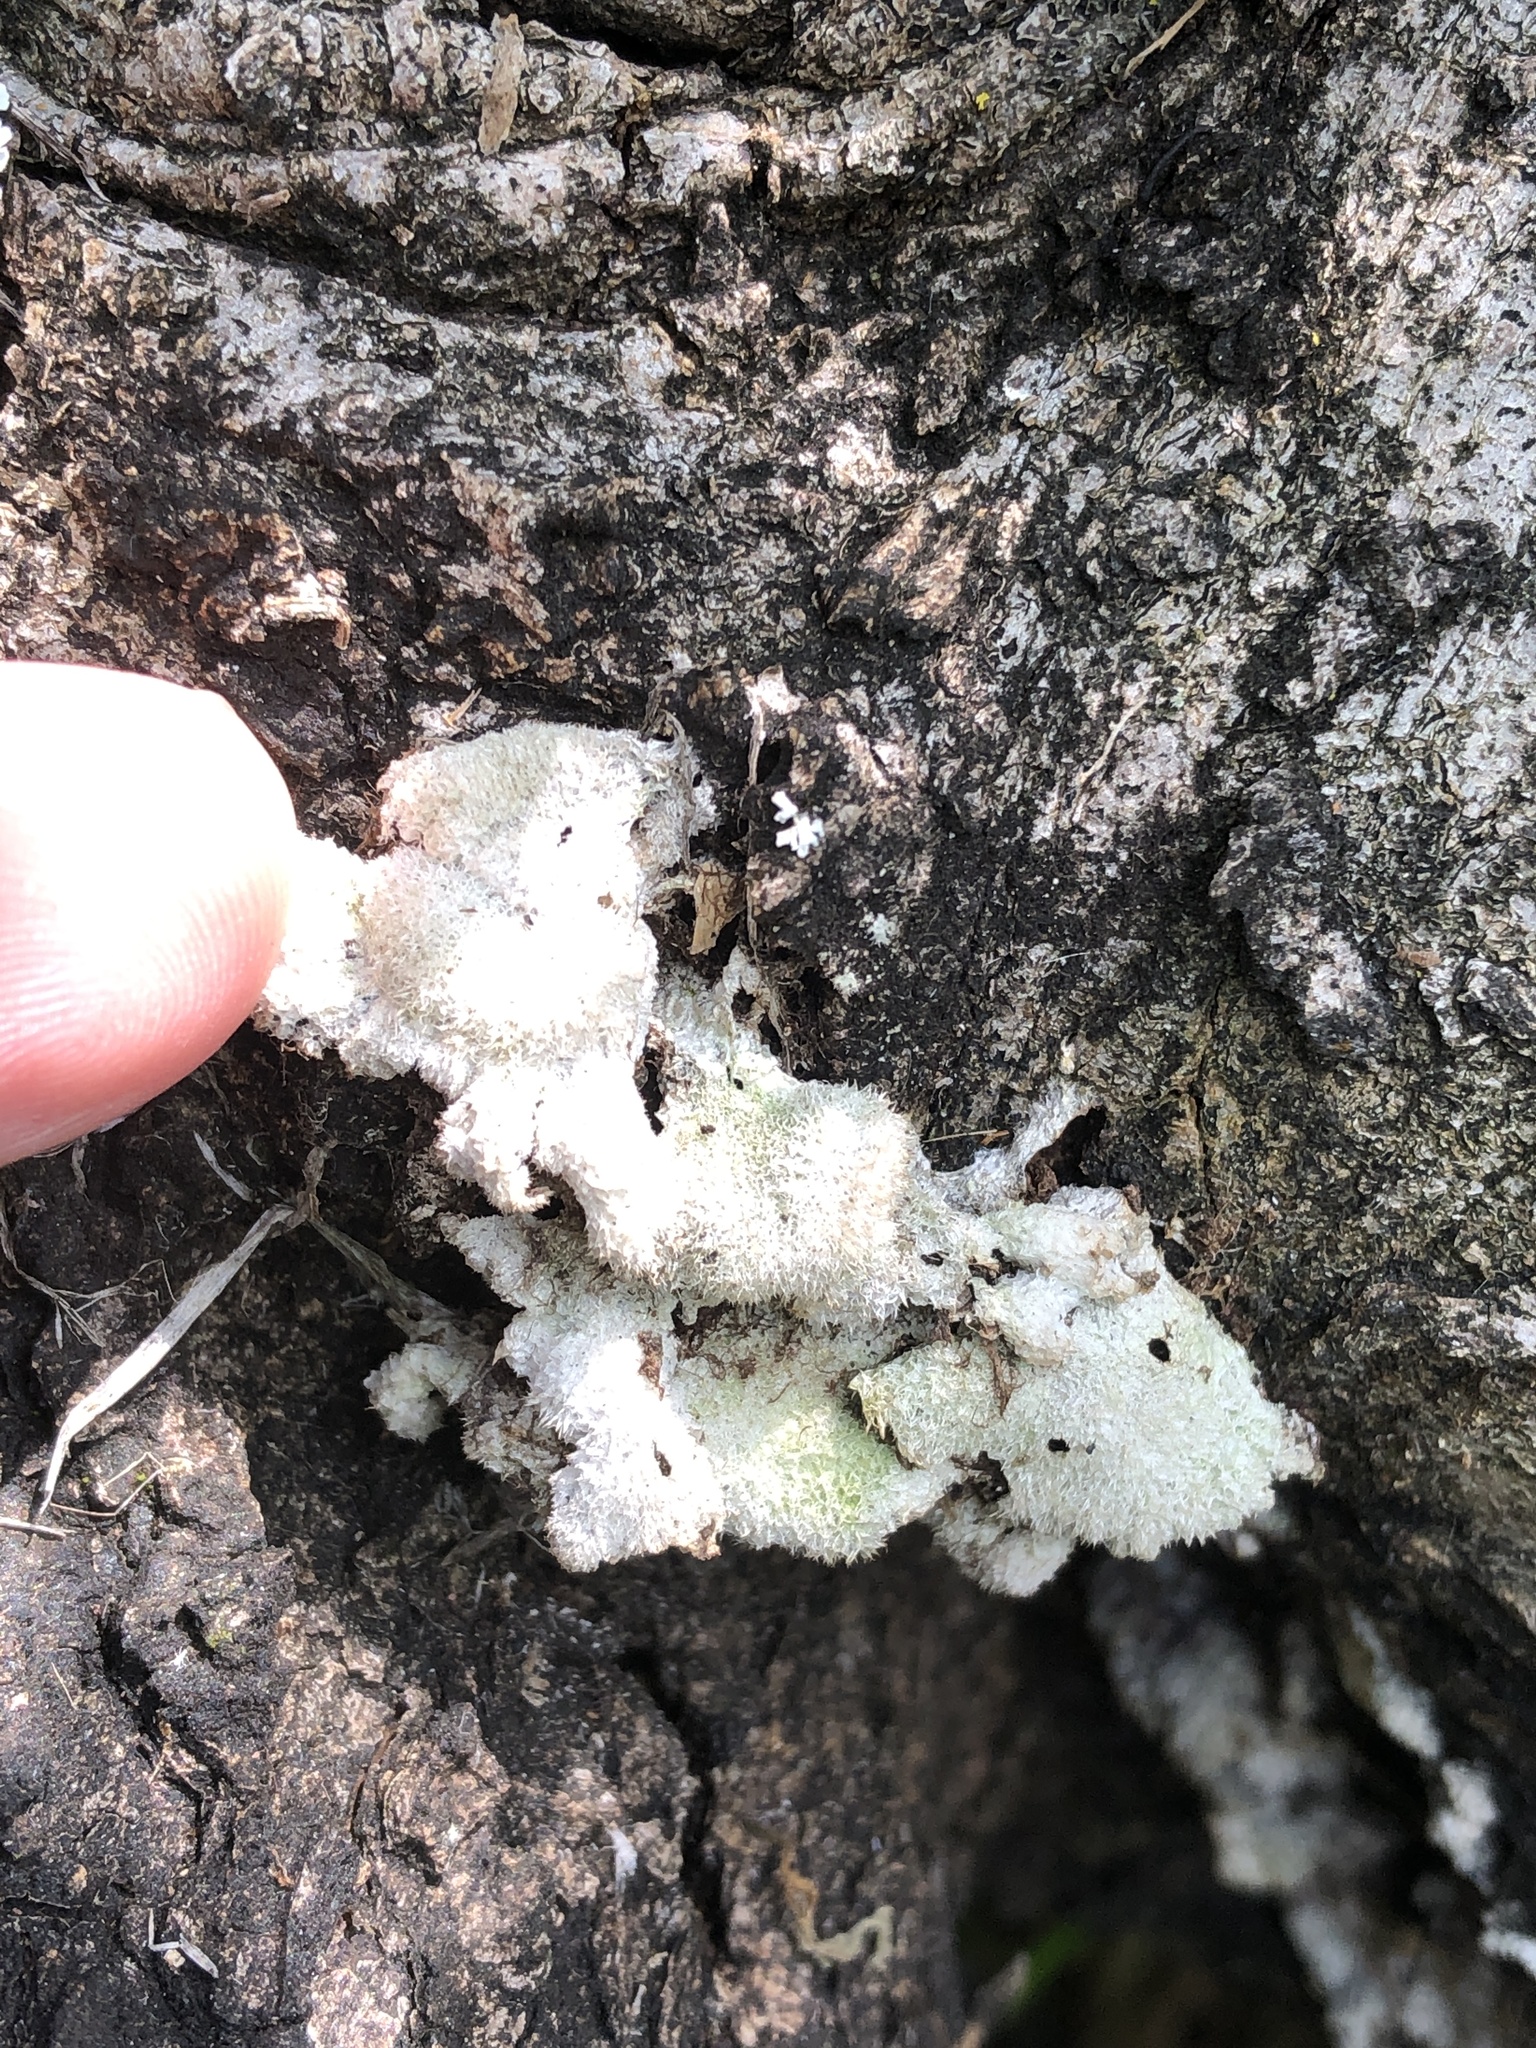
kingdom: Fungi
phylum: Basidiomycota
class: Agaricomycetes
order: Agaricales
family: Schizophyllaceae
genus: Schizophyllum
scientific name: Schizophyllum commune
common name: Common porecrust
